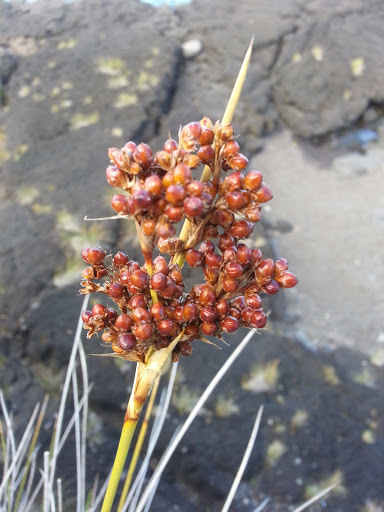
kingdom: Plantae
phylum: Tracheophyta
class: Liliopsida
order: Poales
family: Juncaceae
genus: Juncus
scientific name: Juncus acutus
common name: Sharp rush
